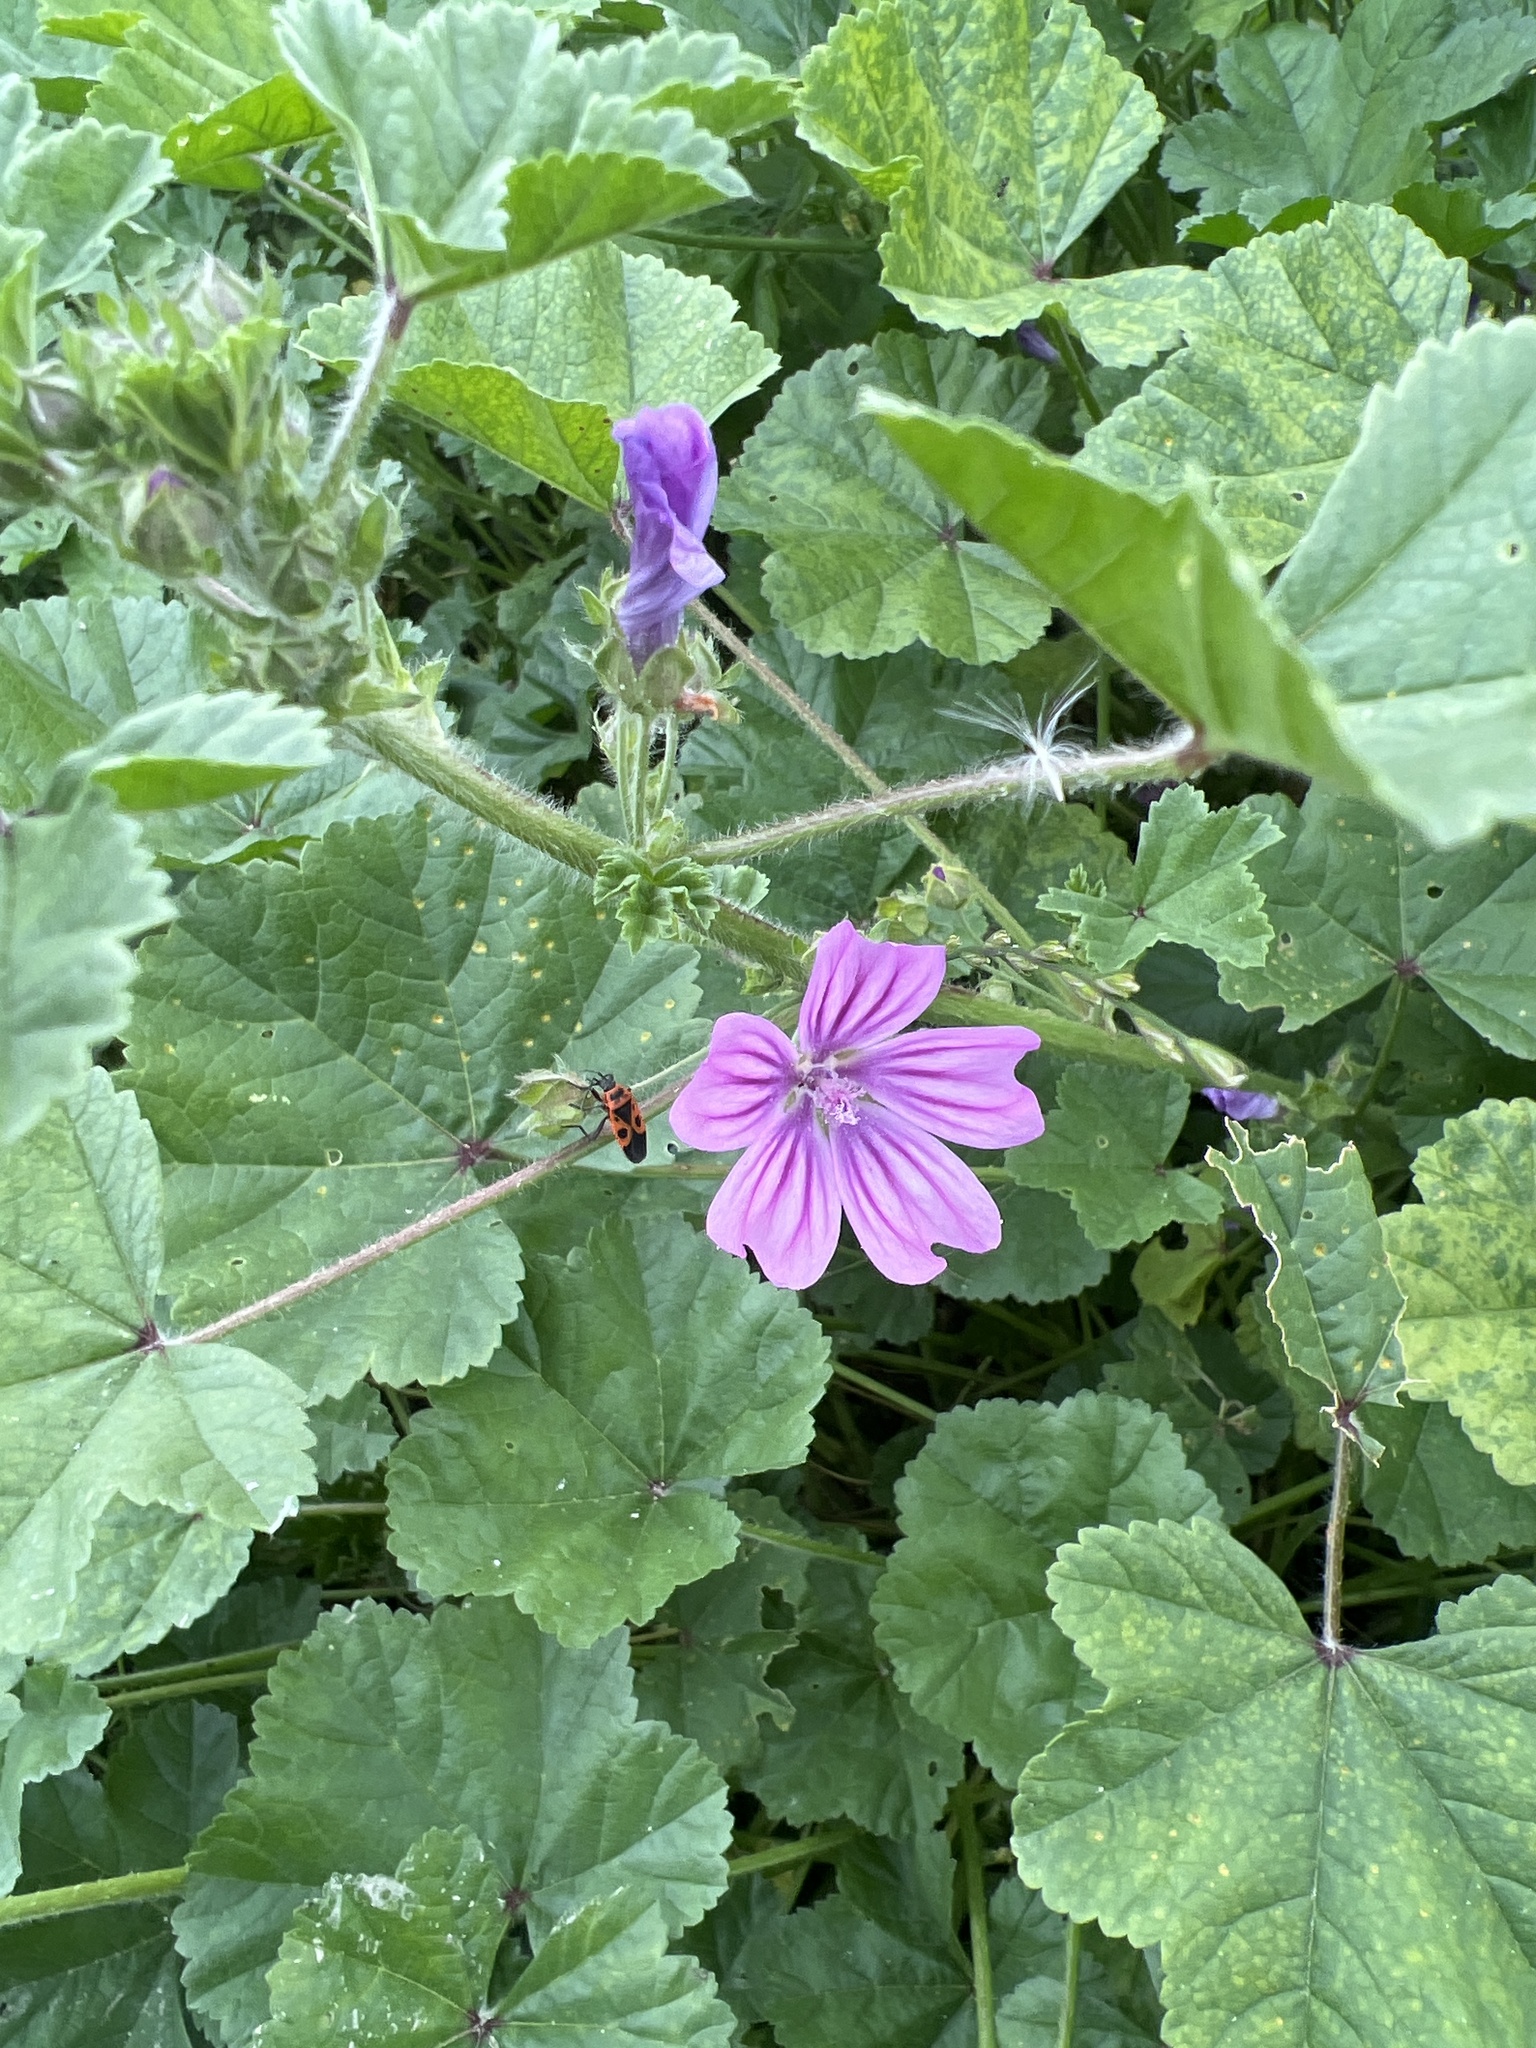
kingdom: Plantae
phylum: Tracheophyta
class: Magnoliopsida
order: Malvales
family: Malvaceae
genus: Malva
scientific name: Malva sylvestris
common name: Common mallow
